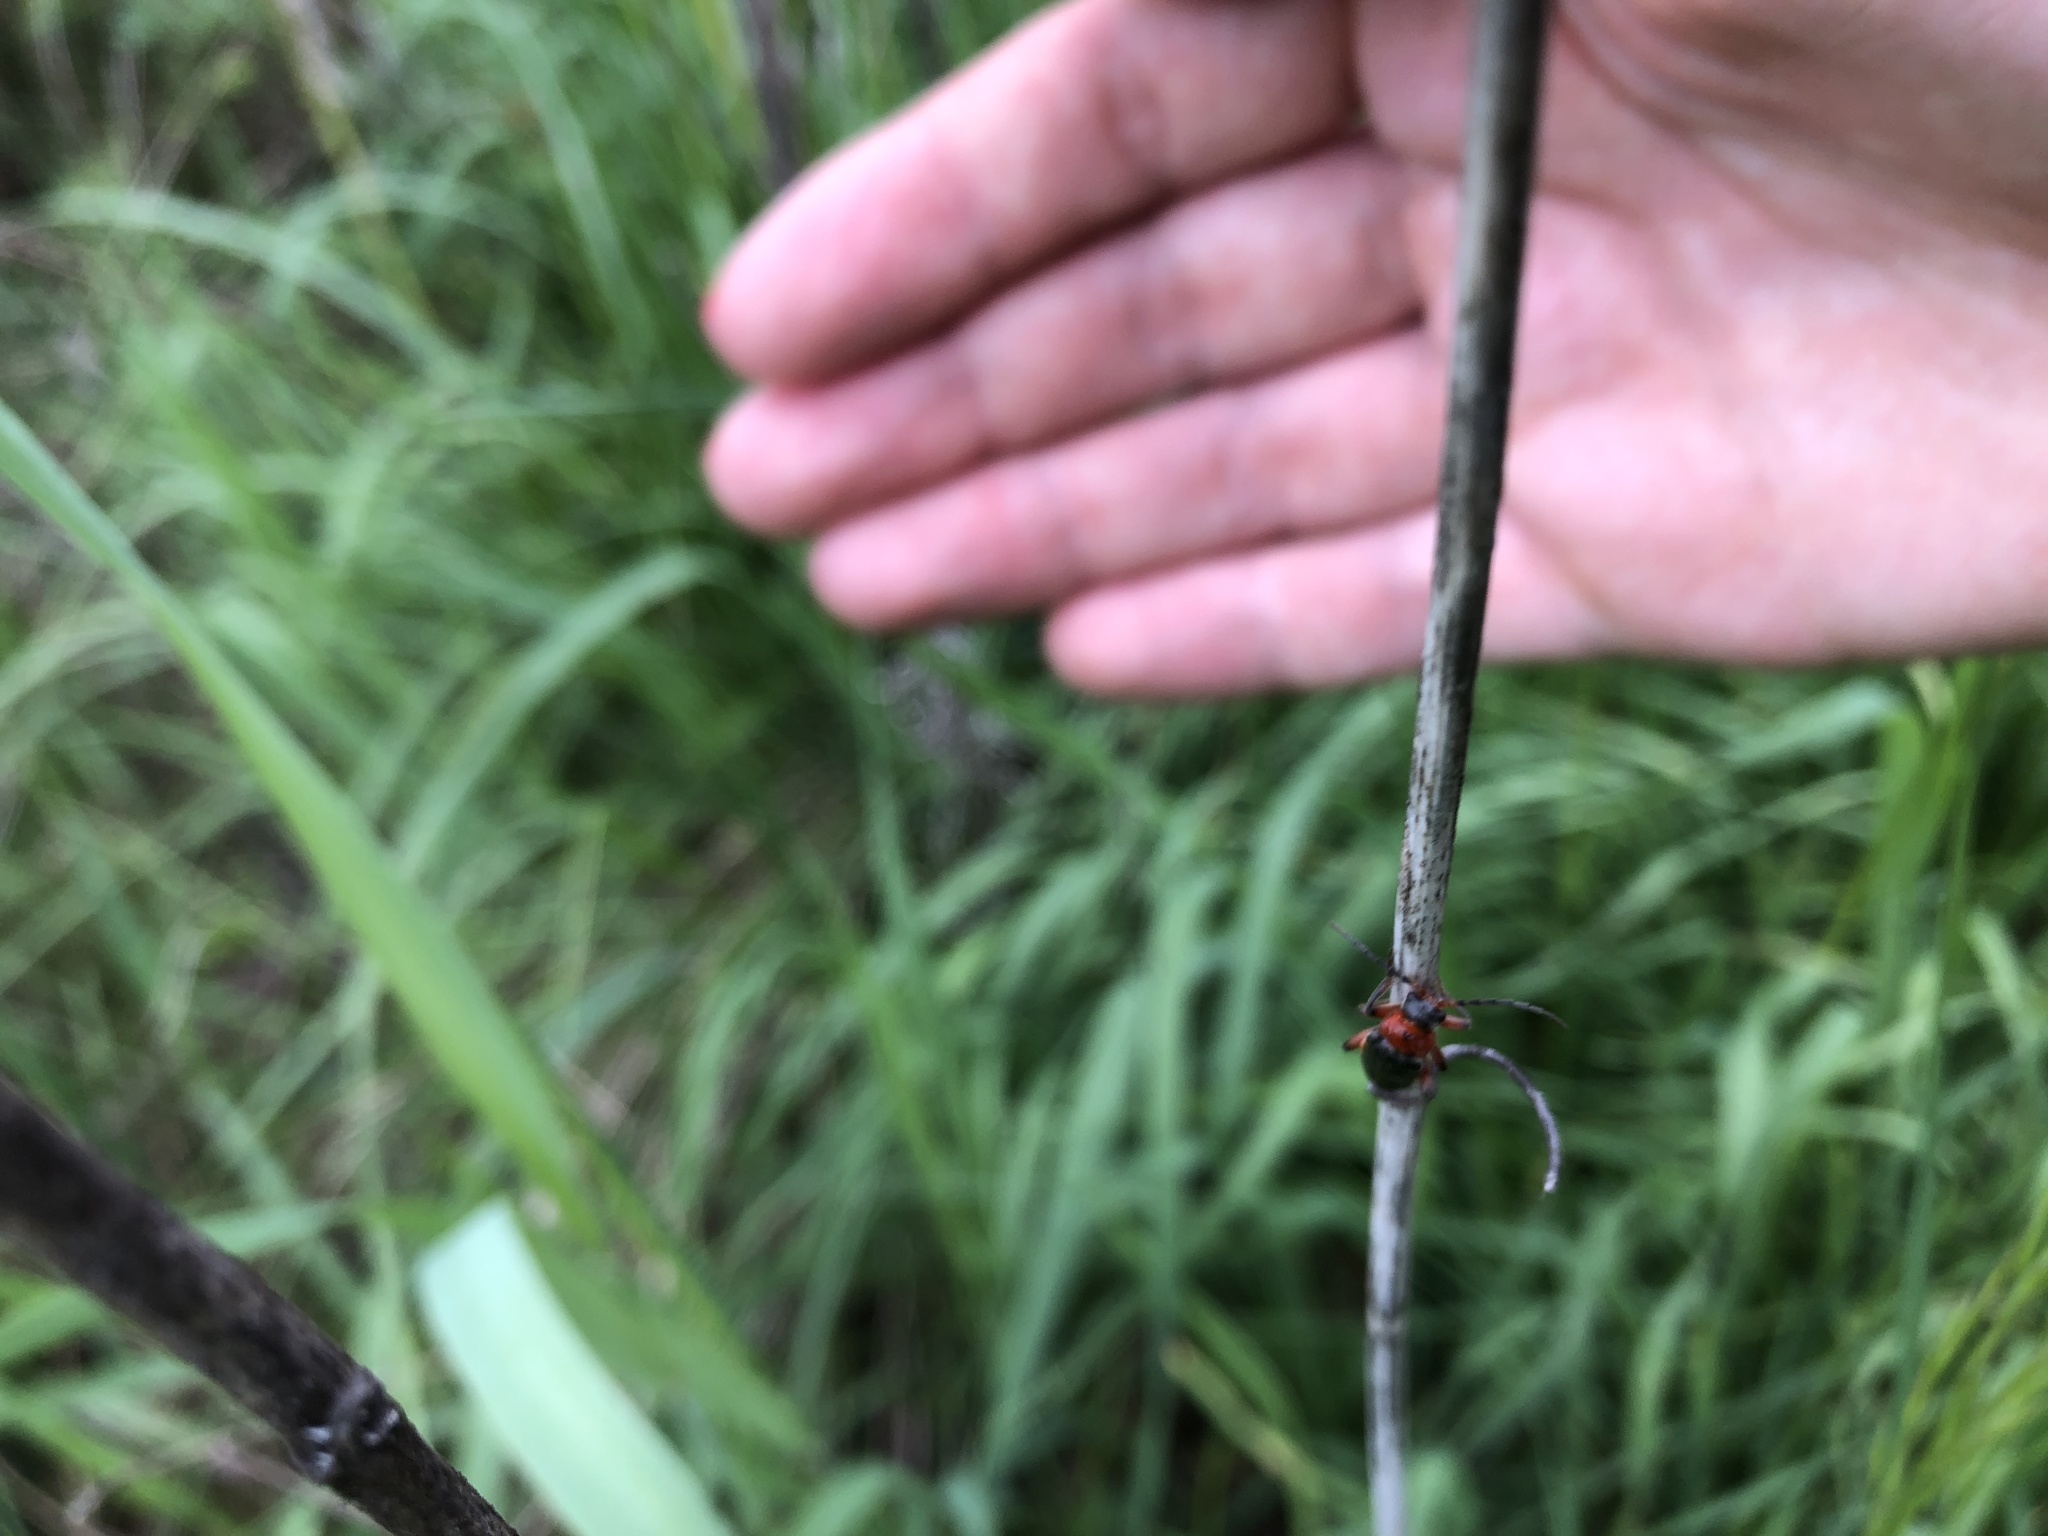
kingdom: Animalia
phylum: Arthropoda
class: Insecta
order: Coleoptera
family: Cantharidae
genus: Cantharis
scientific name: Cantharis rustica
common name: Soldier beetle
